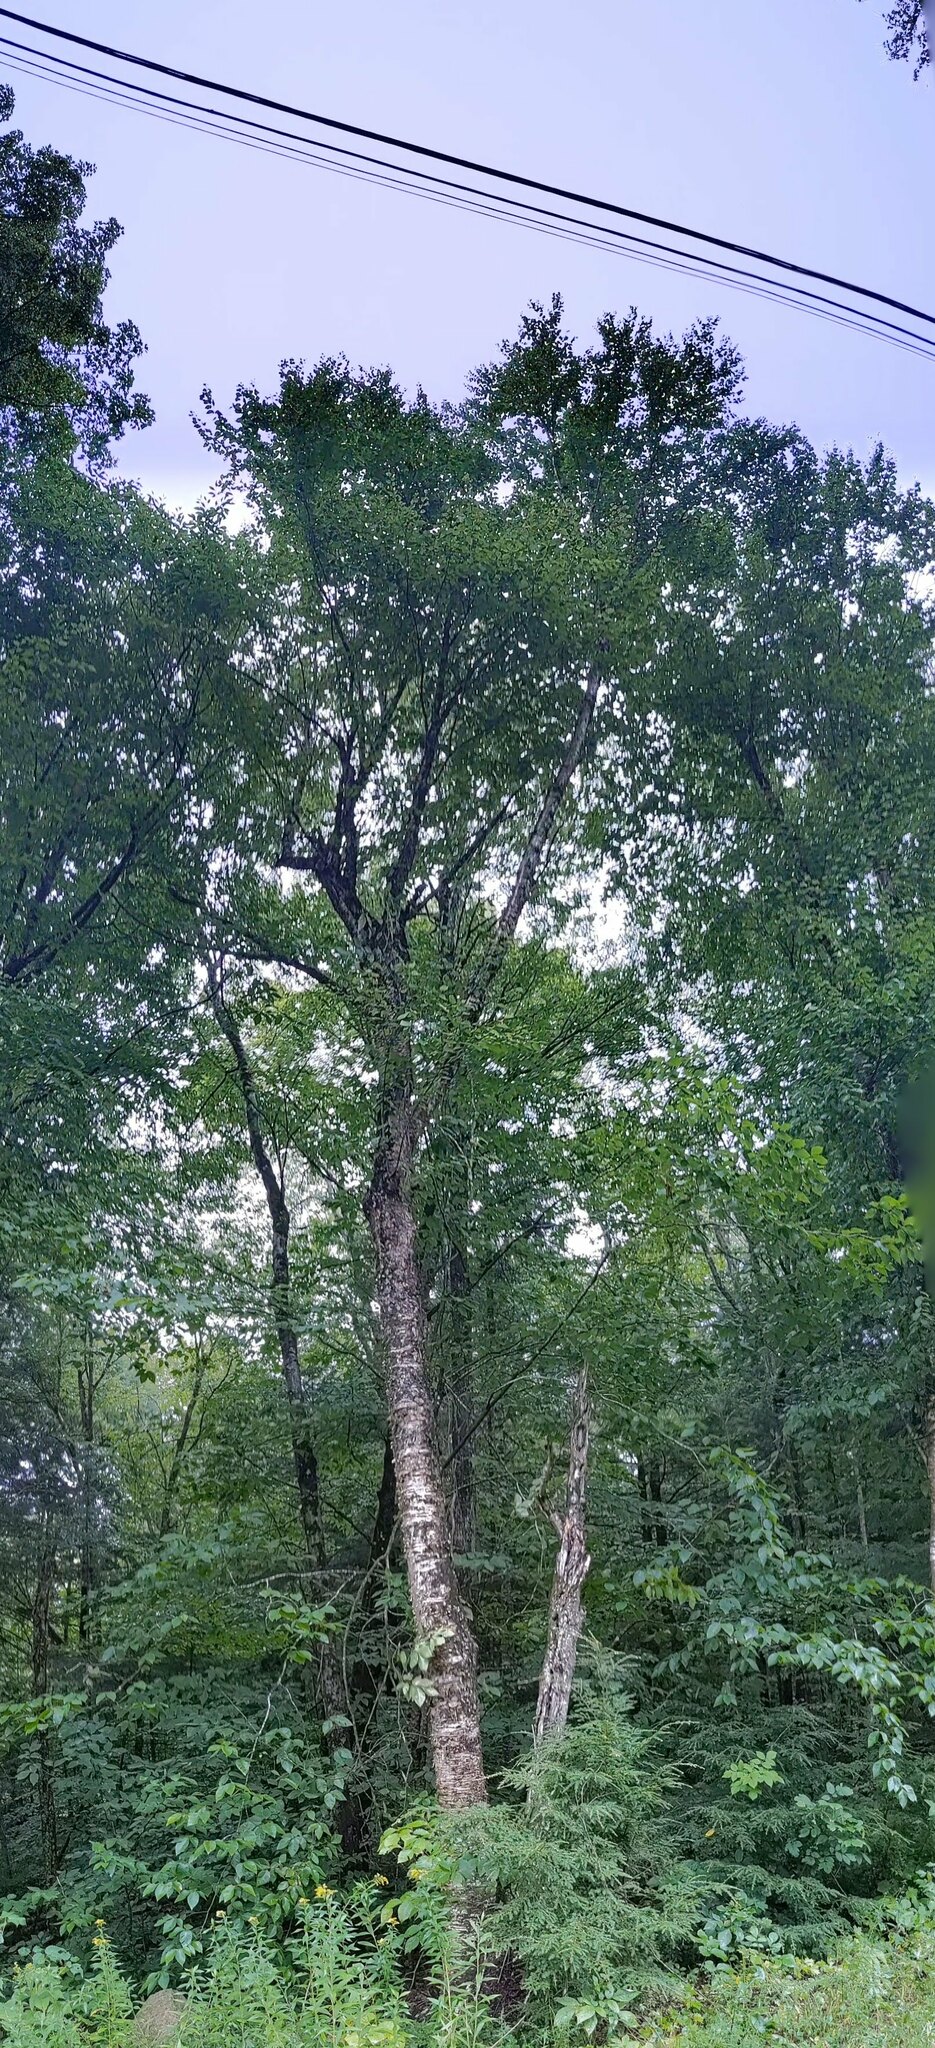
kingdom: Plantae
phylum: Tracheophyta
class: Magnoliopsida
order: Fagales
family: Betulaceae
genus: Betula
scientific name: Betula alleghaniensis
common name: Yellow birch
